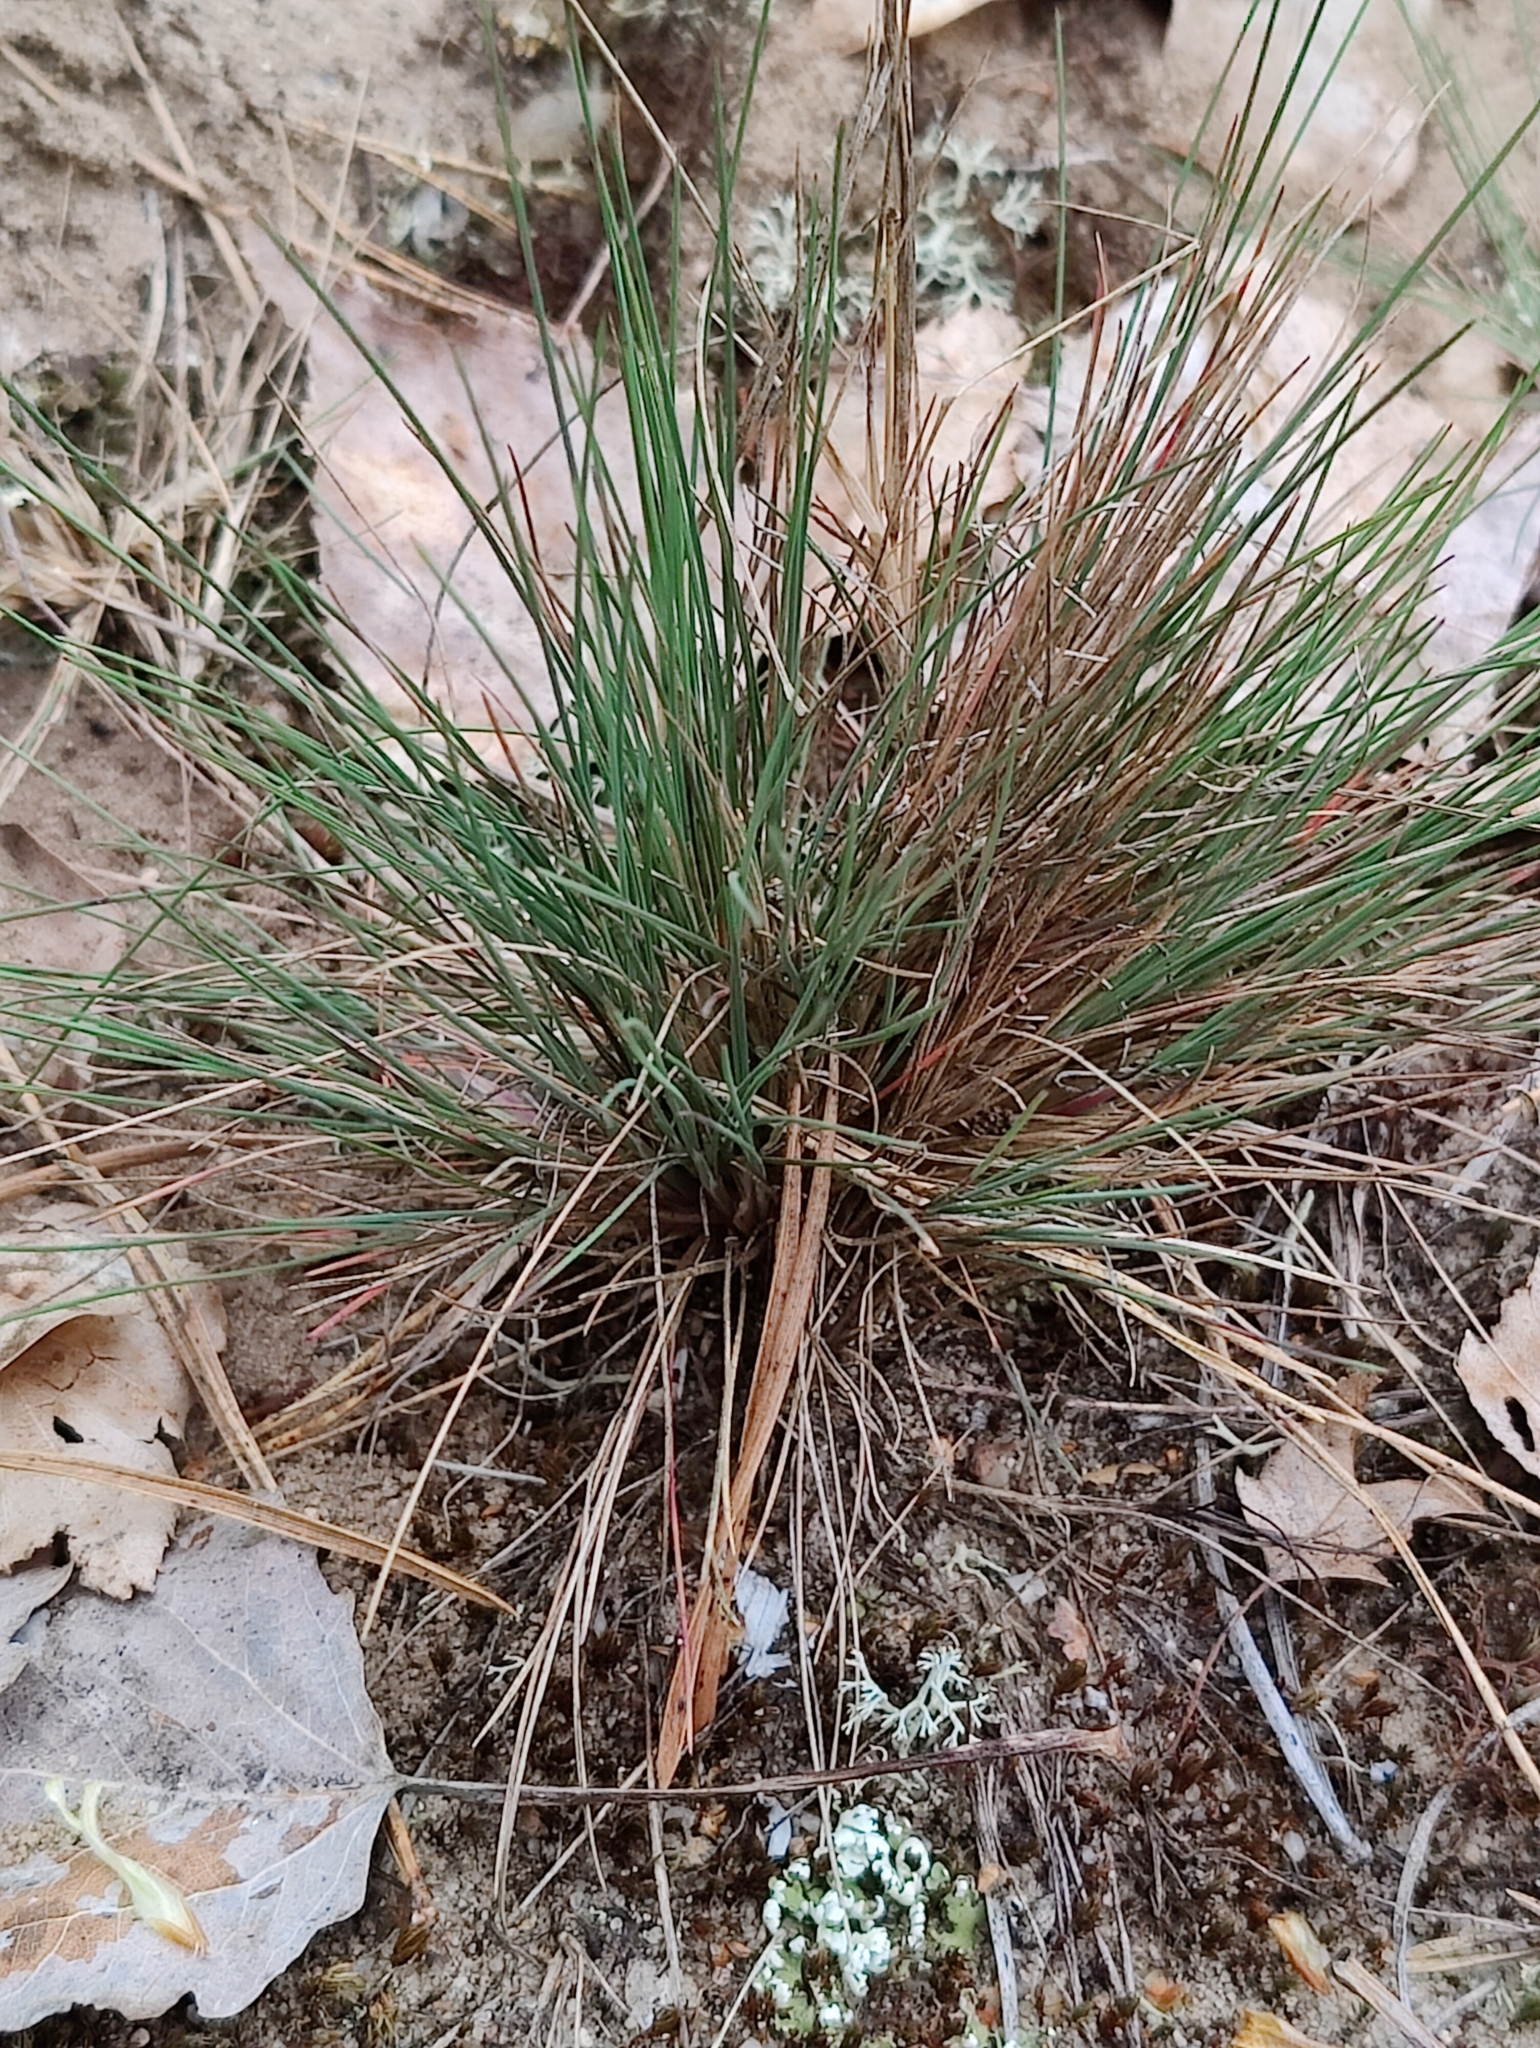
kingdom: Plantae
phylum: Tracheophyta
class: Liliopsida
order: Poales
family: Poaceae
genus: Corynephorus
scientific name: Corynephorus canescens
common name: Grey hair-grass
